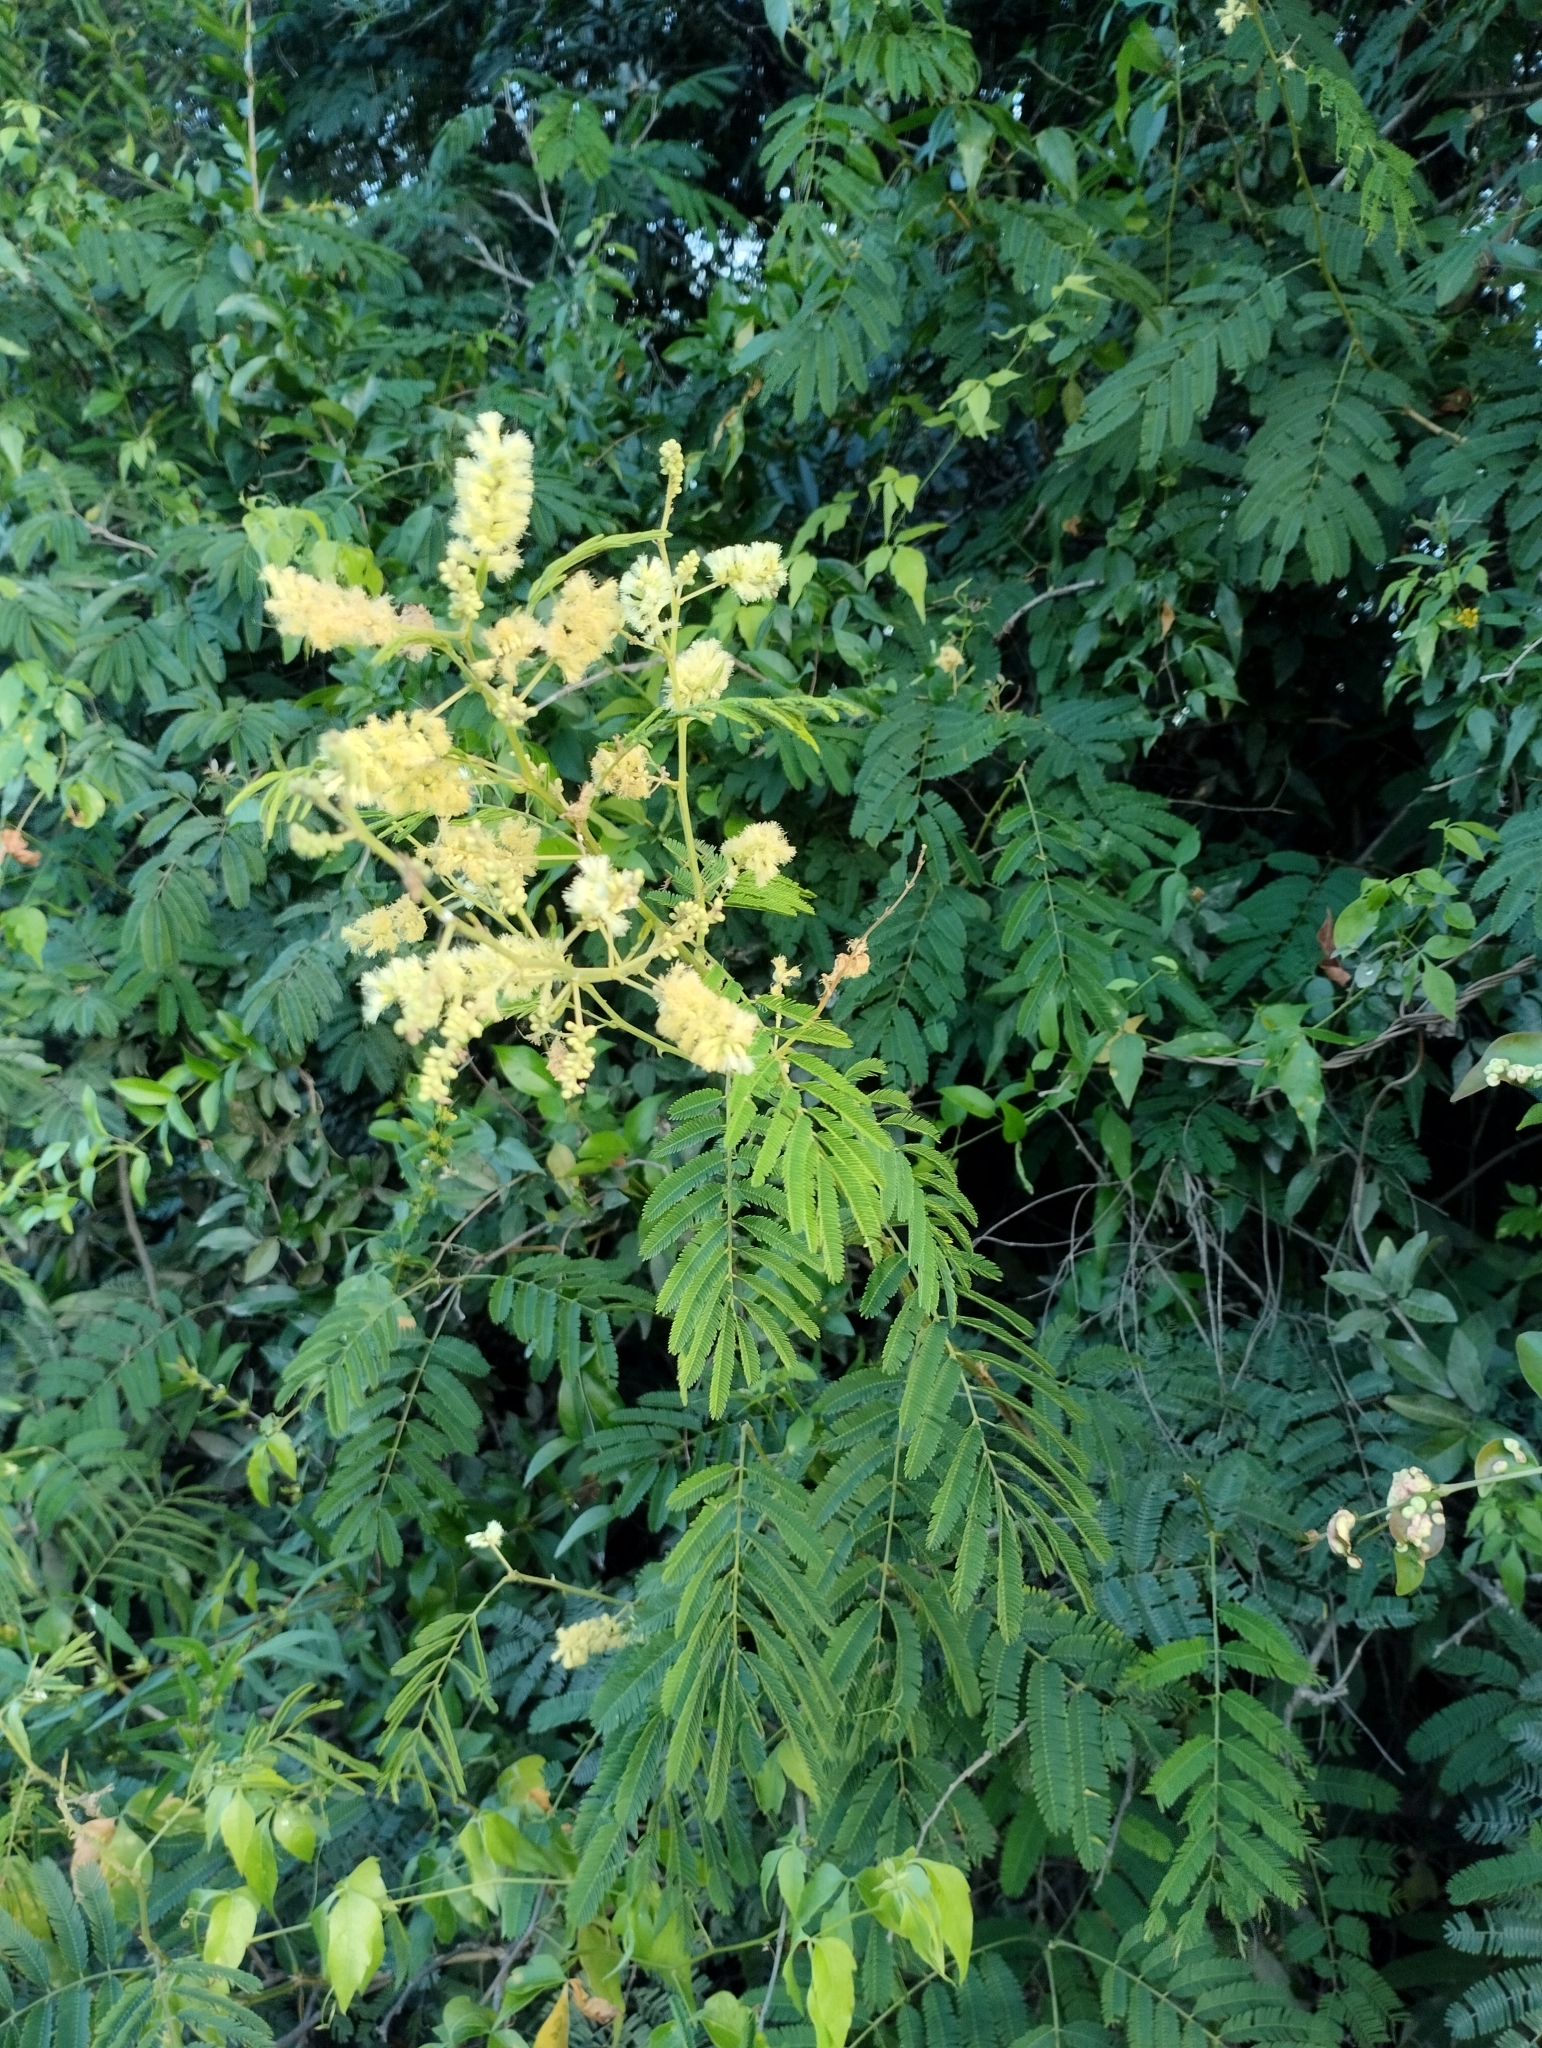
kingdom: Plantae
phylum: Tracheophyta
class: Magnoliopsida
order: Fabales
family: Fabaceae
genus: Senegalia
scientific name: Senegalia bonariensis
